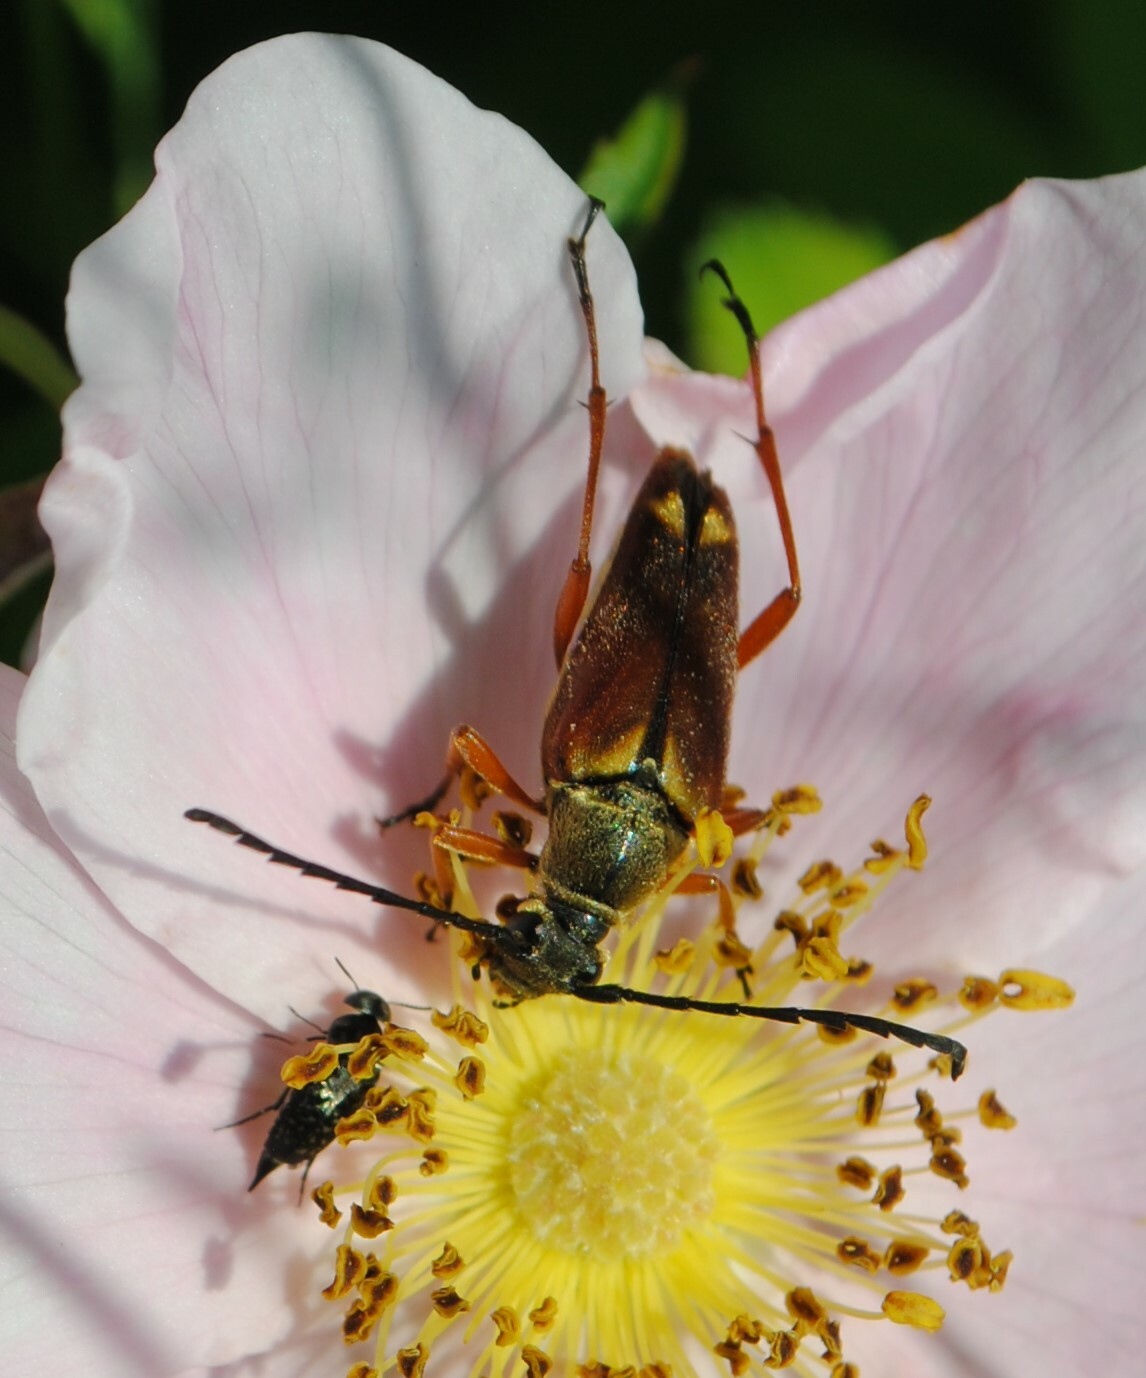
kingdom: Animalia
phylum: Arthropoda
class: Insecta
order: Coleoptera
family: Cerambycidae
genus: Typocerus
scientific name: Typocerus acuticauda
